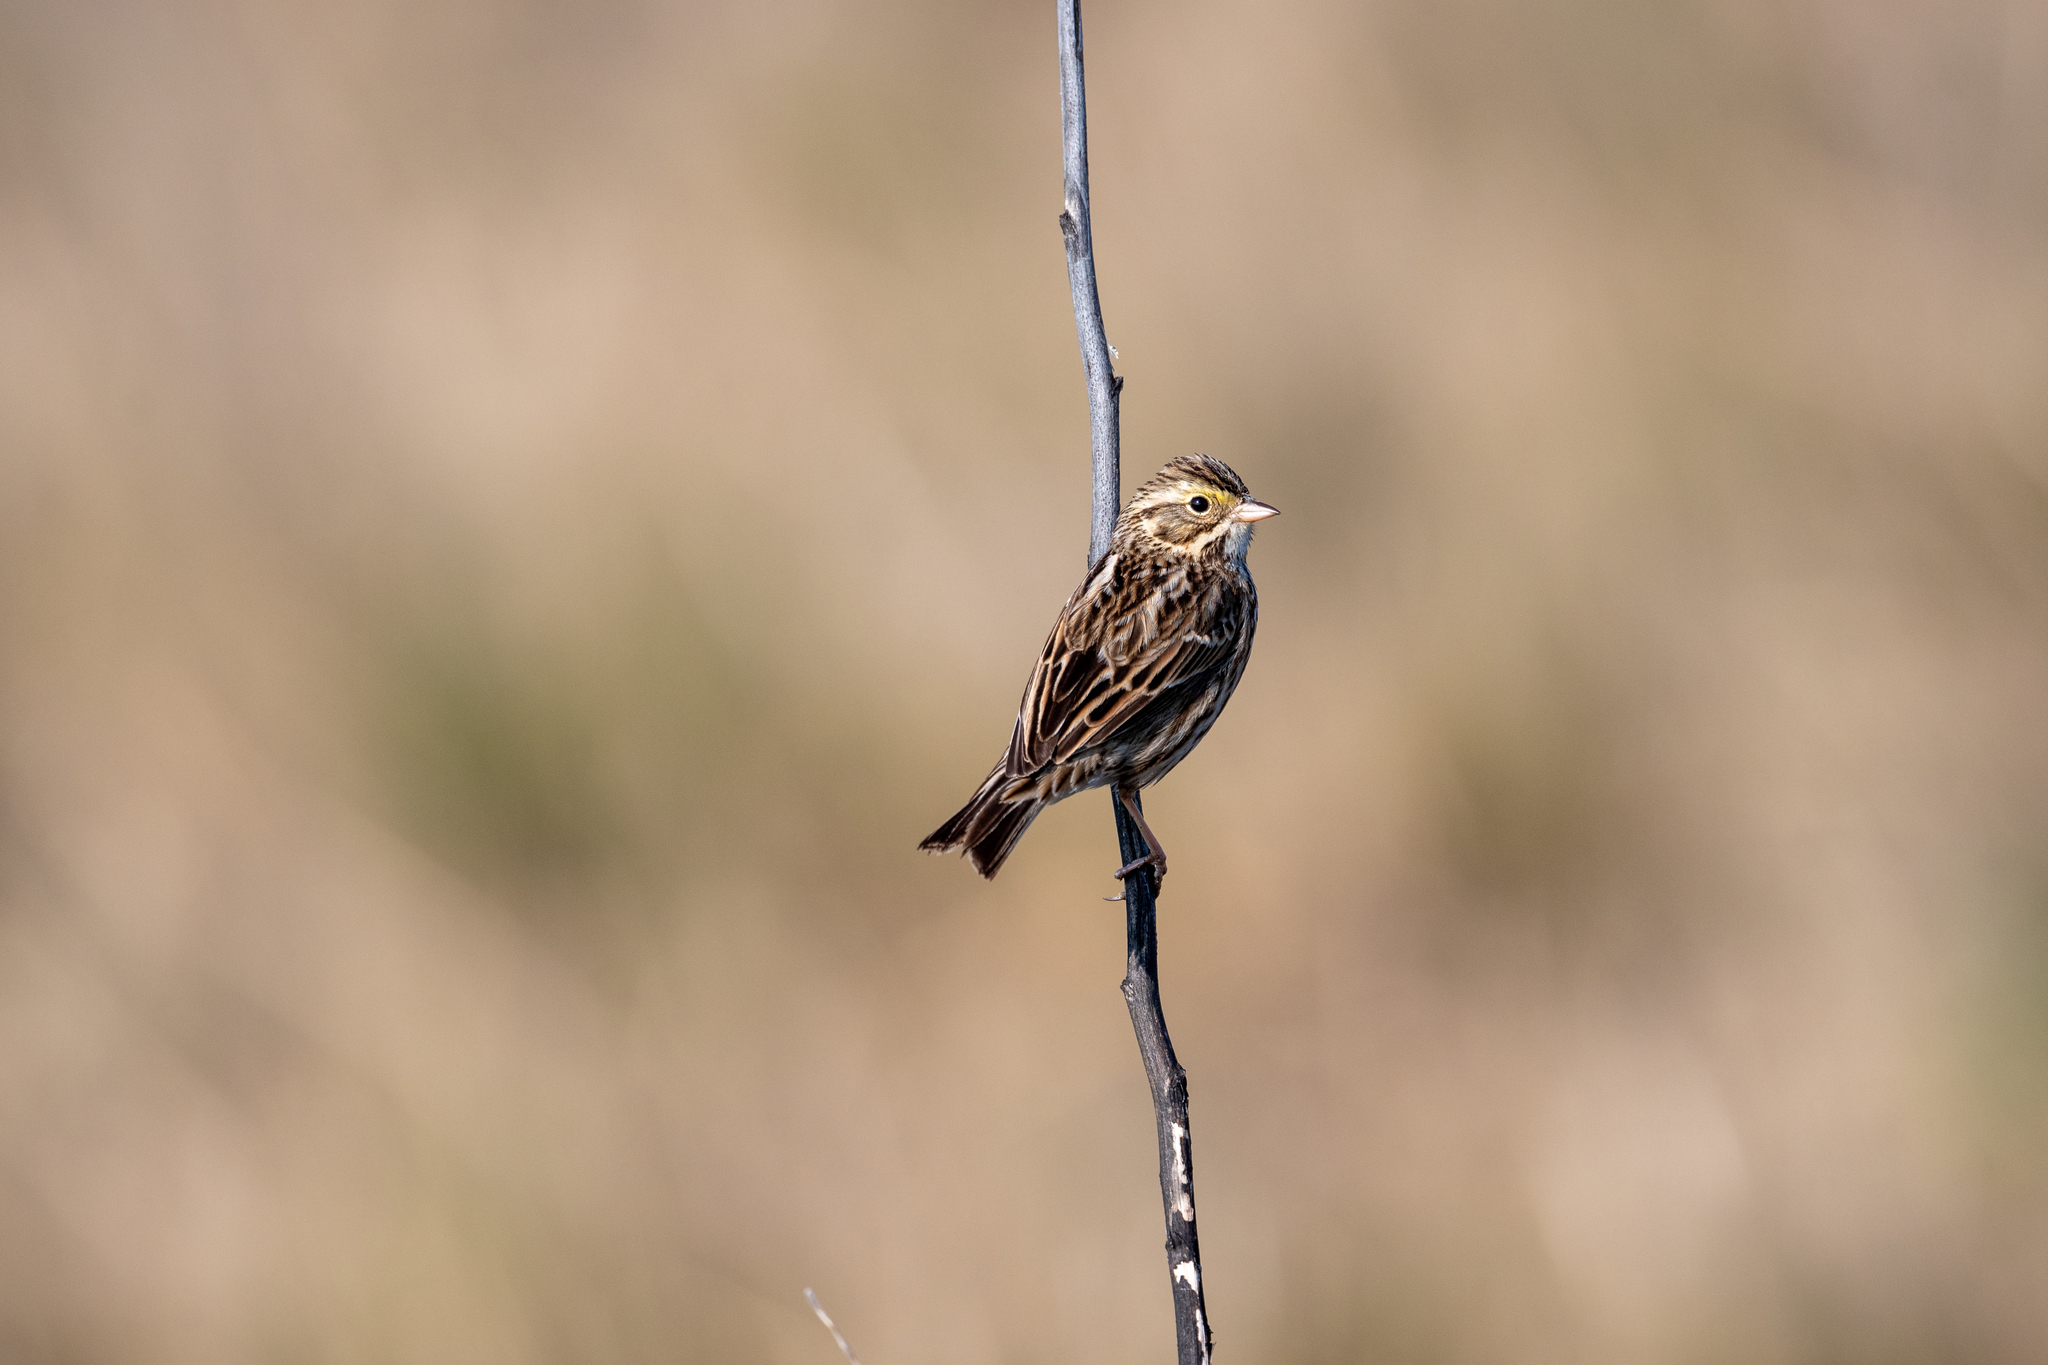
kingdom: Animalia
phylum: Chordata
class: Aves
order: Passeriformes
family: Passerellidae
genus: Passerculus
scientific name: Passerculus sandwichensis
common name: Savannah sparrow
